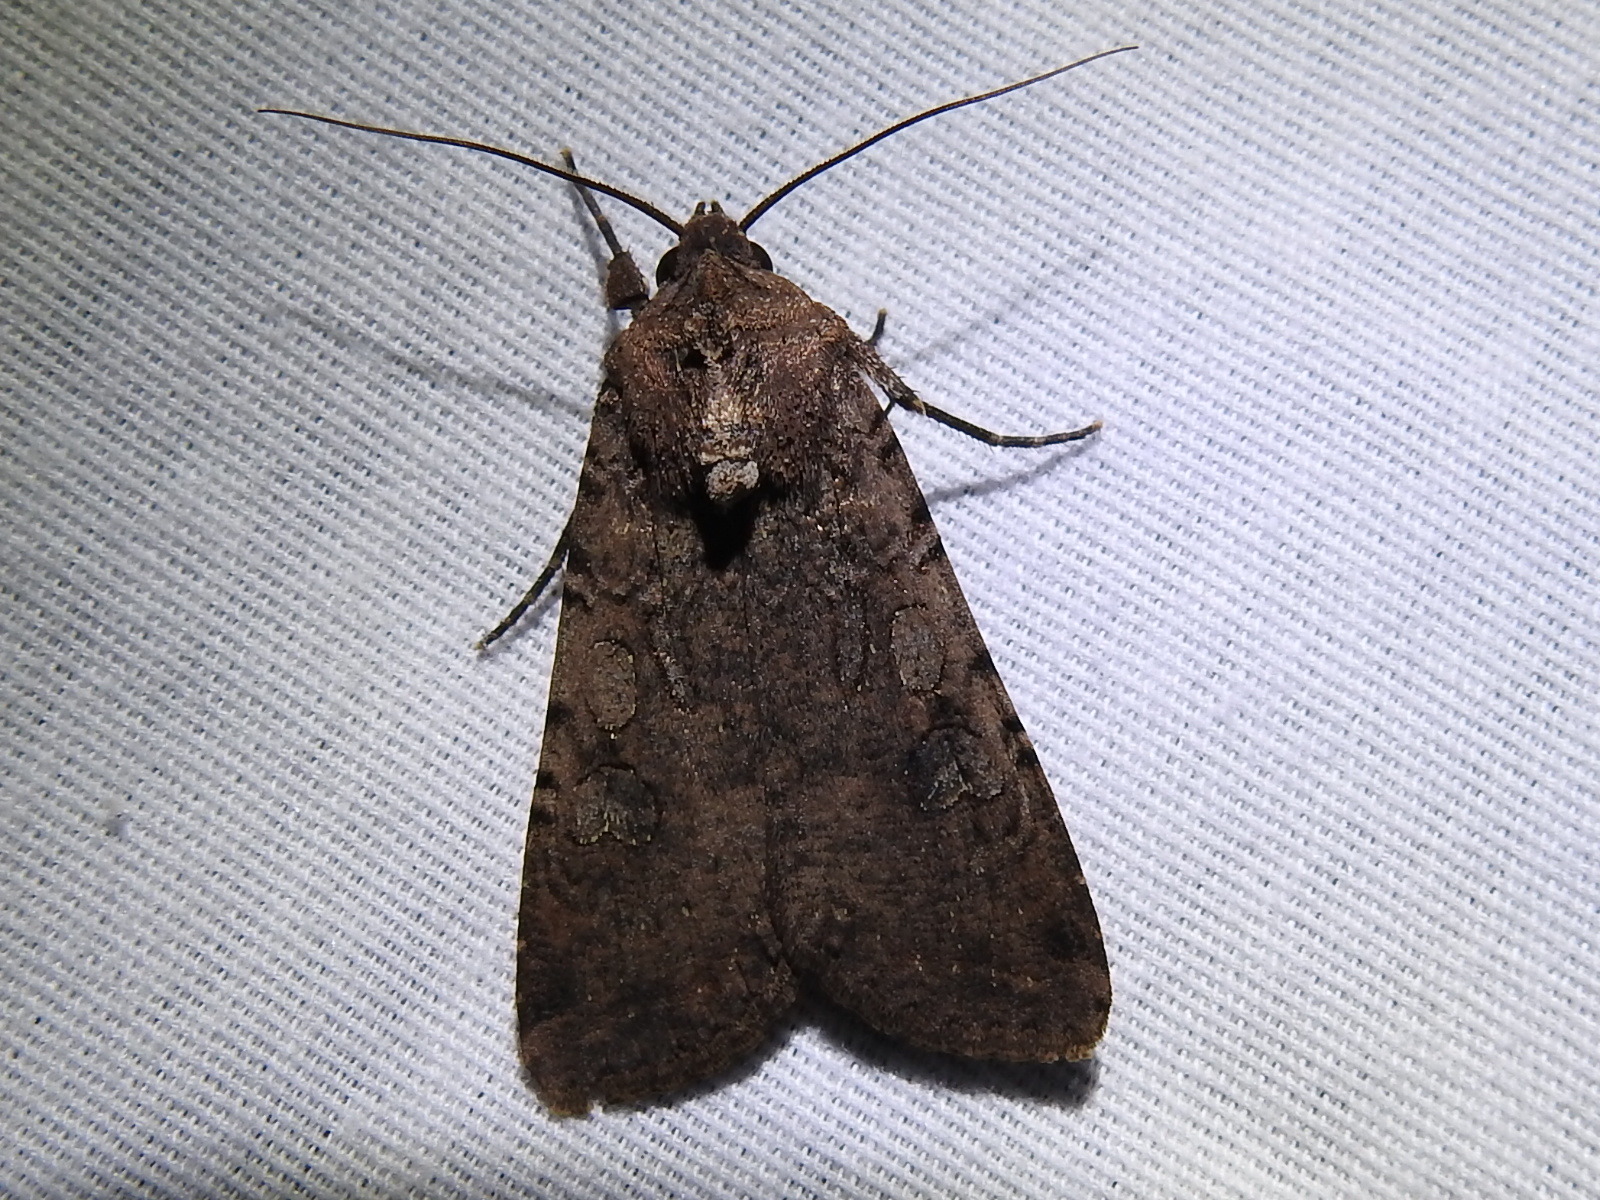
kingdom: Animalia
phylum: Arthropoda
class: Insecta
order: Lepidoptera
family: Noctuidae
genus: Peridroma
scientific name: Peridroma saucia
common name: Pearly underwing
